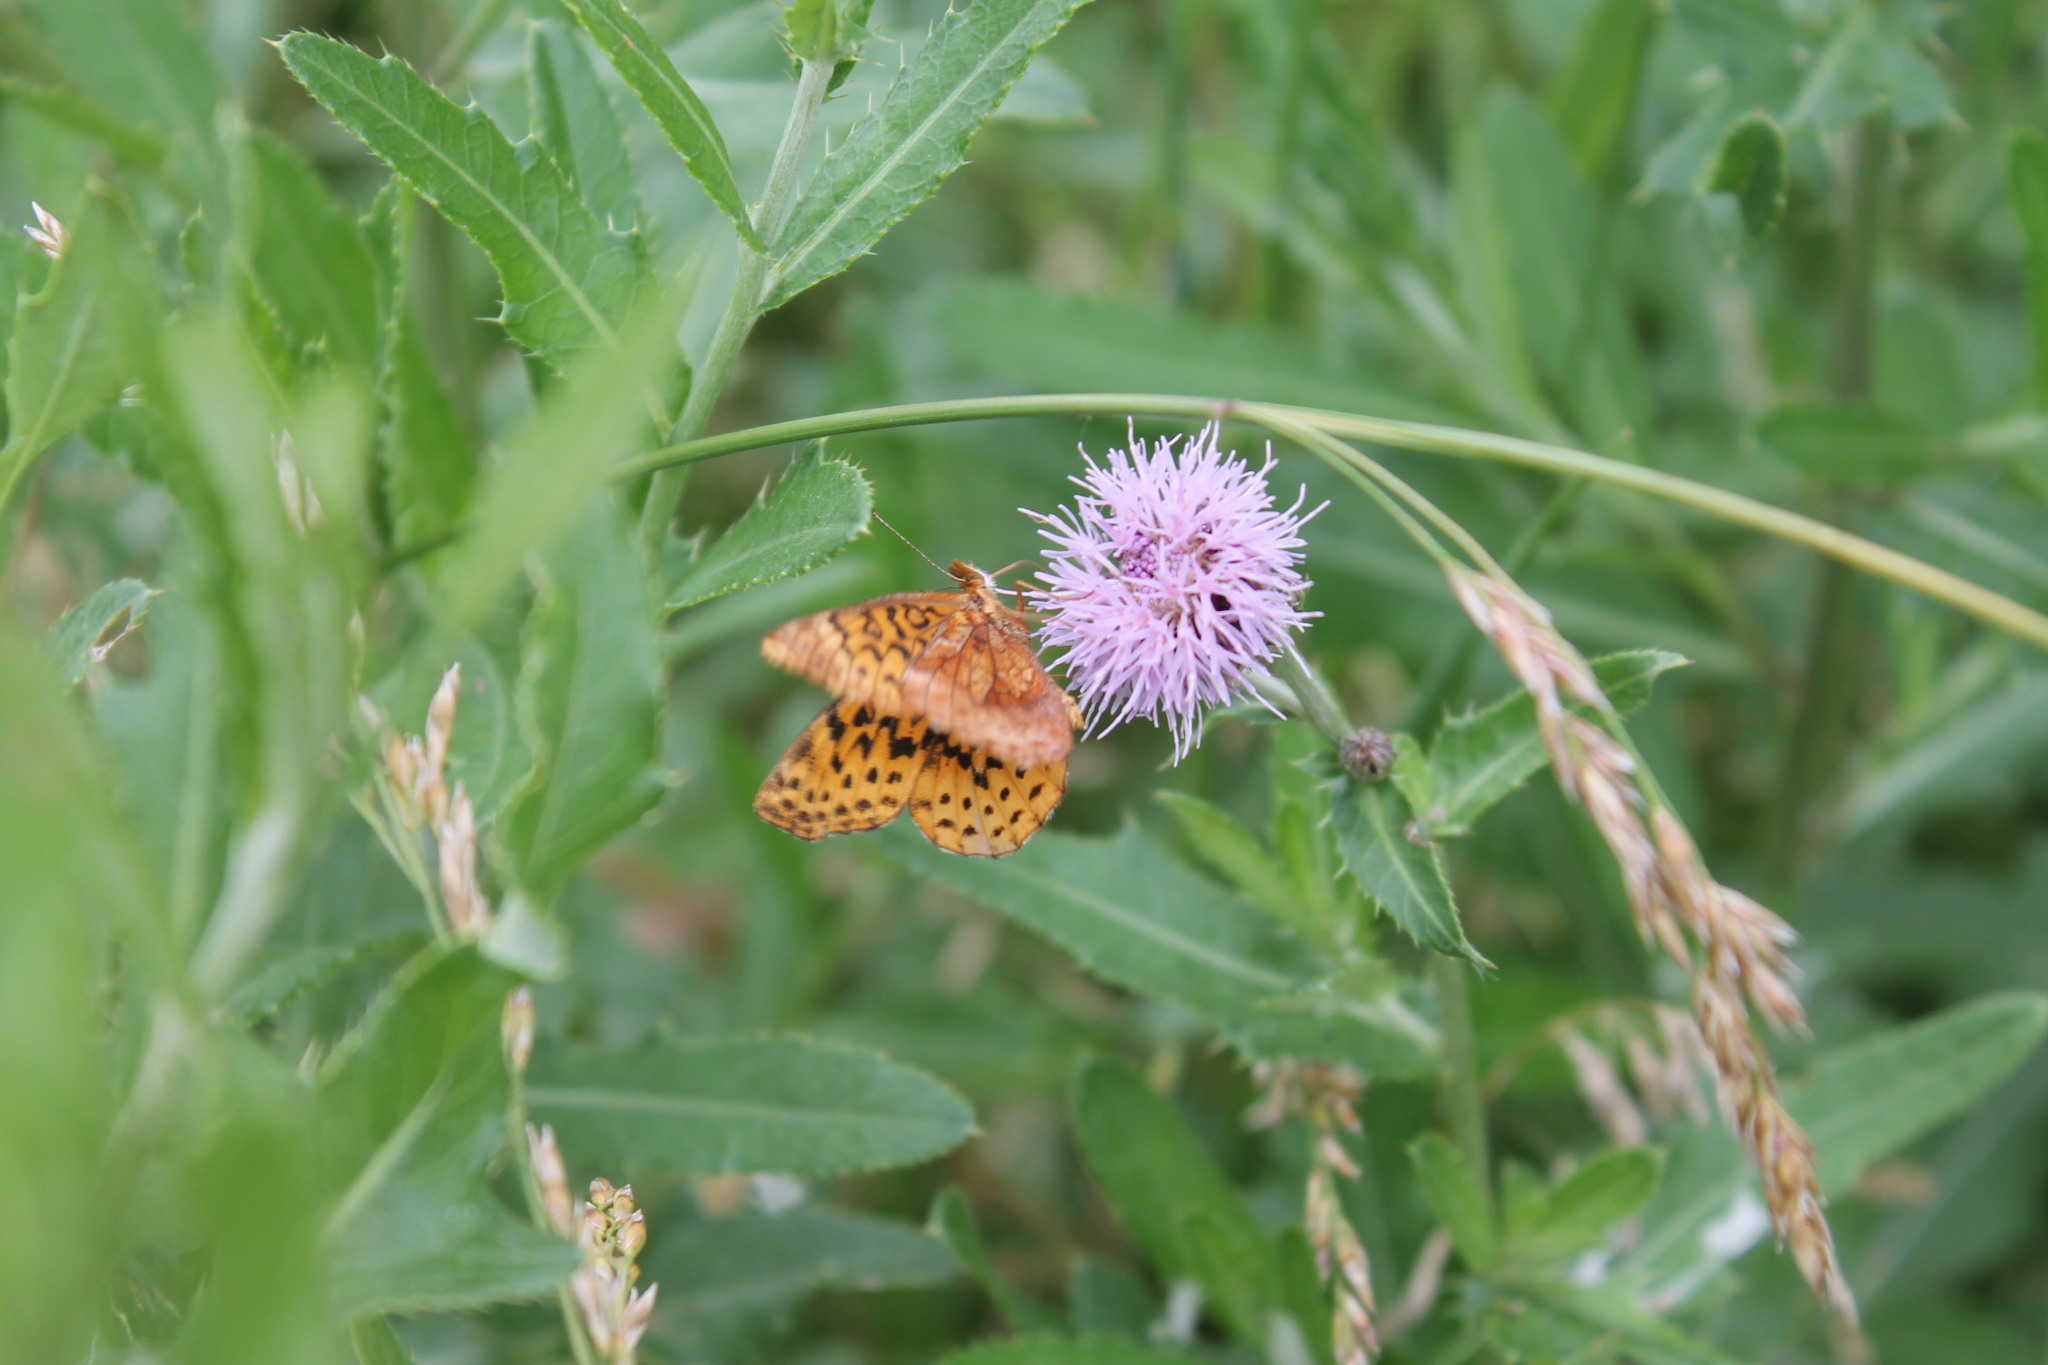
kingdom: Animalia
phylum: Arthropoda
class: Insecta
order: Lepidoptera
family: Nymphalidae
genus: Clossiana
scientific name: Clossiana toddi
